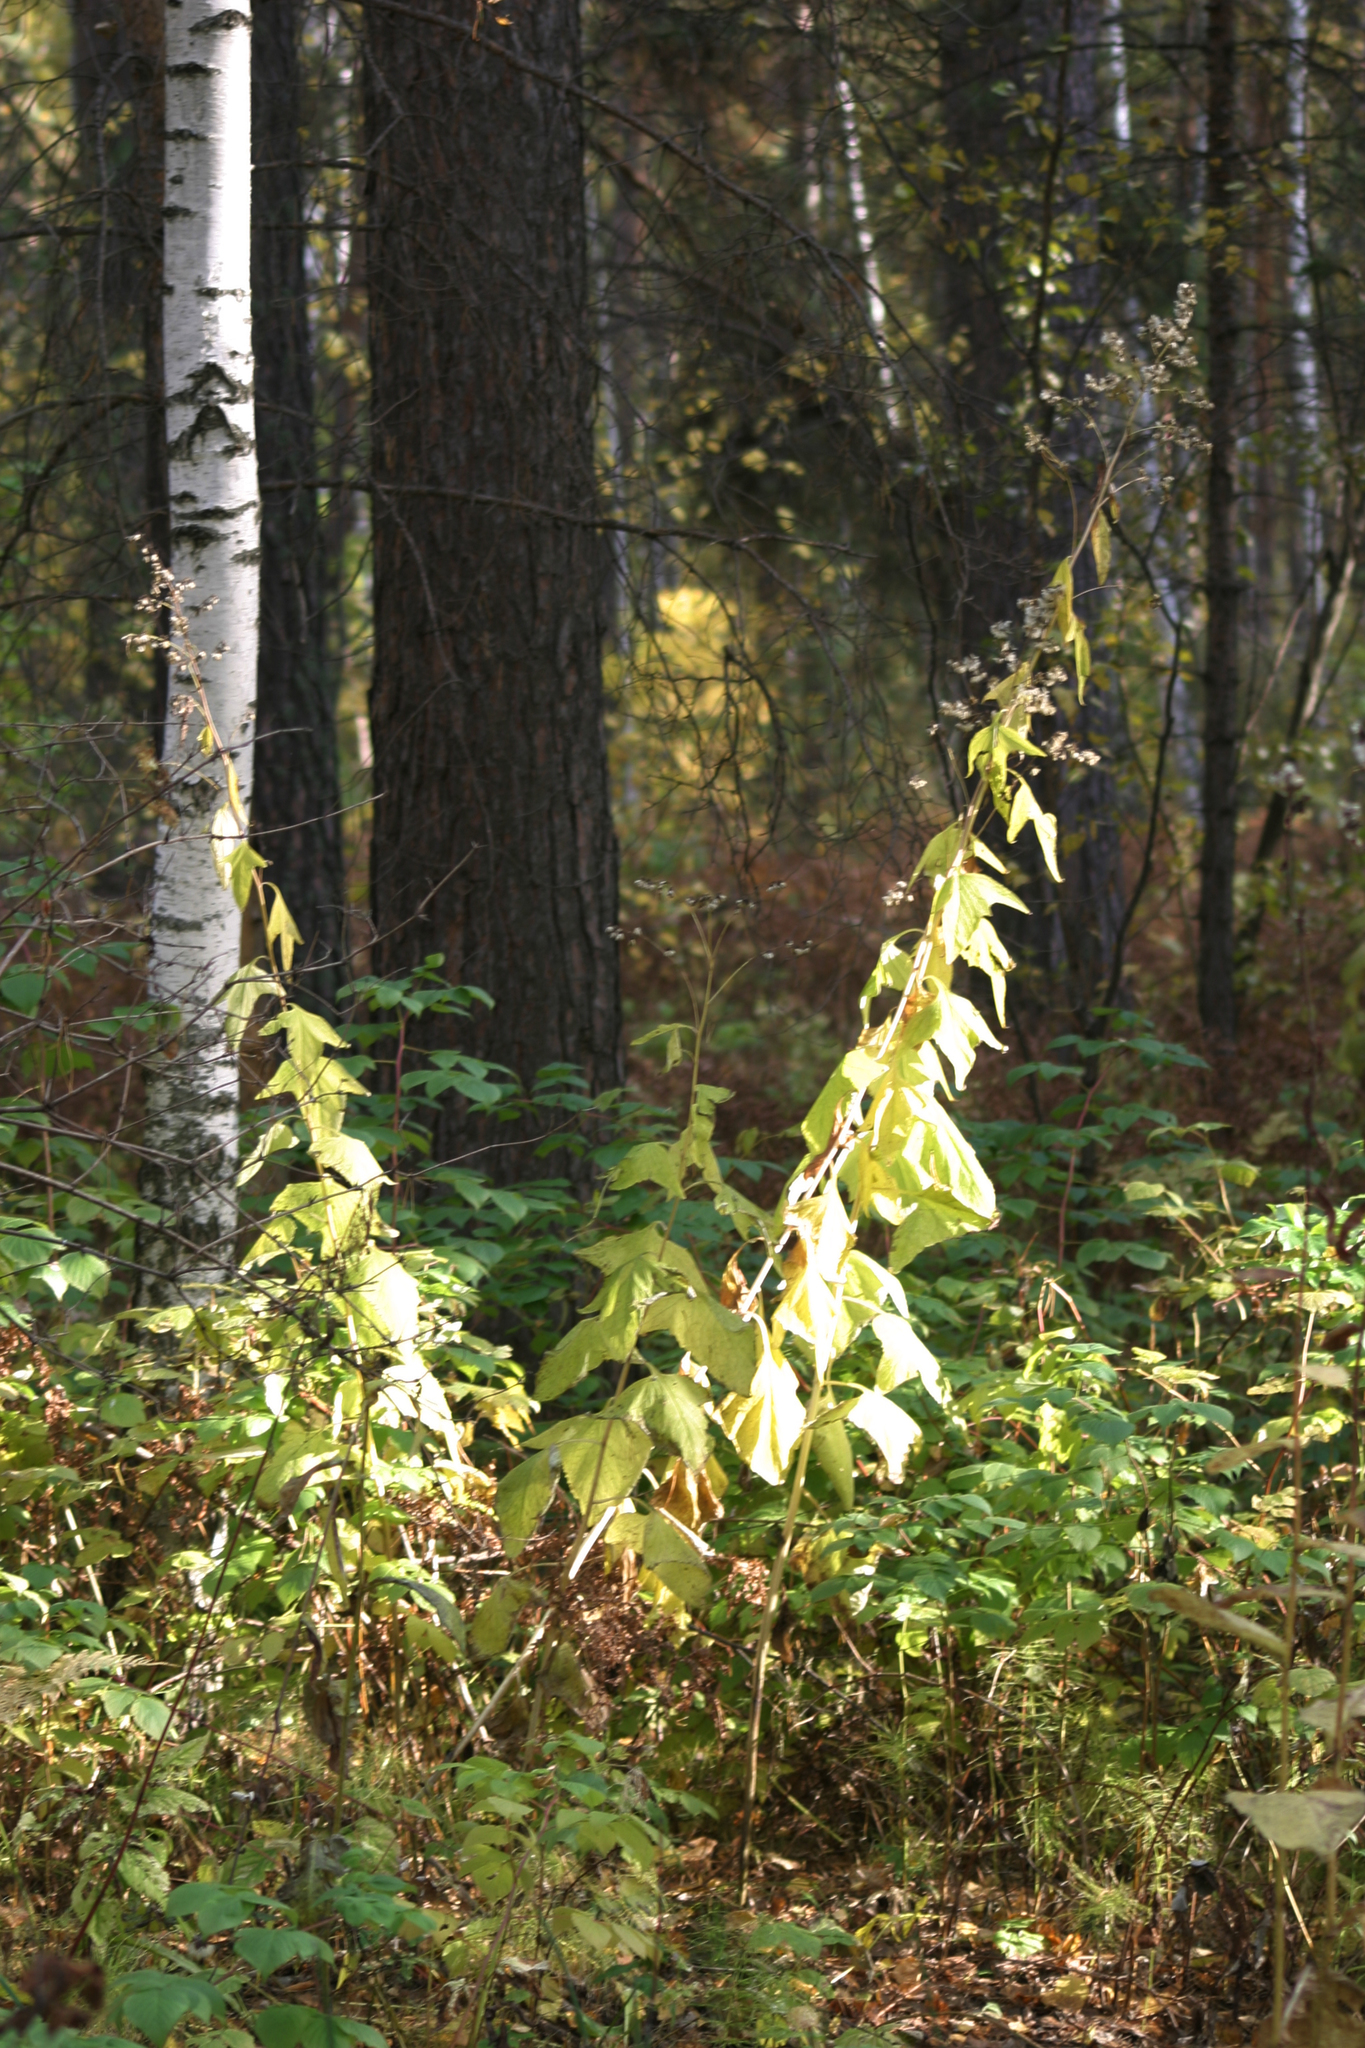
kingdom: Plantae
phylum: Tracheophyta
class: Magnoliopsida
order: Asterales
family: Asteraceae
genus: Parasenecio
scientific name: Parasenecio hastatus
